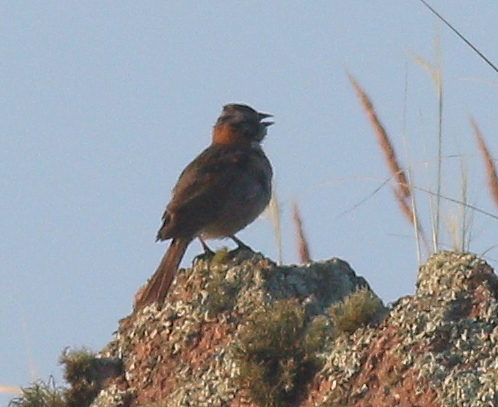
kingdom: Animalia
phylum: Chordata
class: Aves
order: Passeriformes
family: Passerellidae
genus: Zonotrichia
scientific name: Zonotrichia capensis
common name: Rufous-collared sparrow
